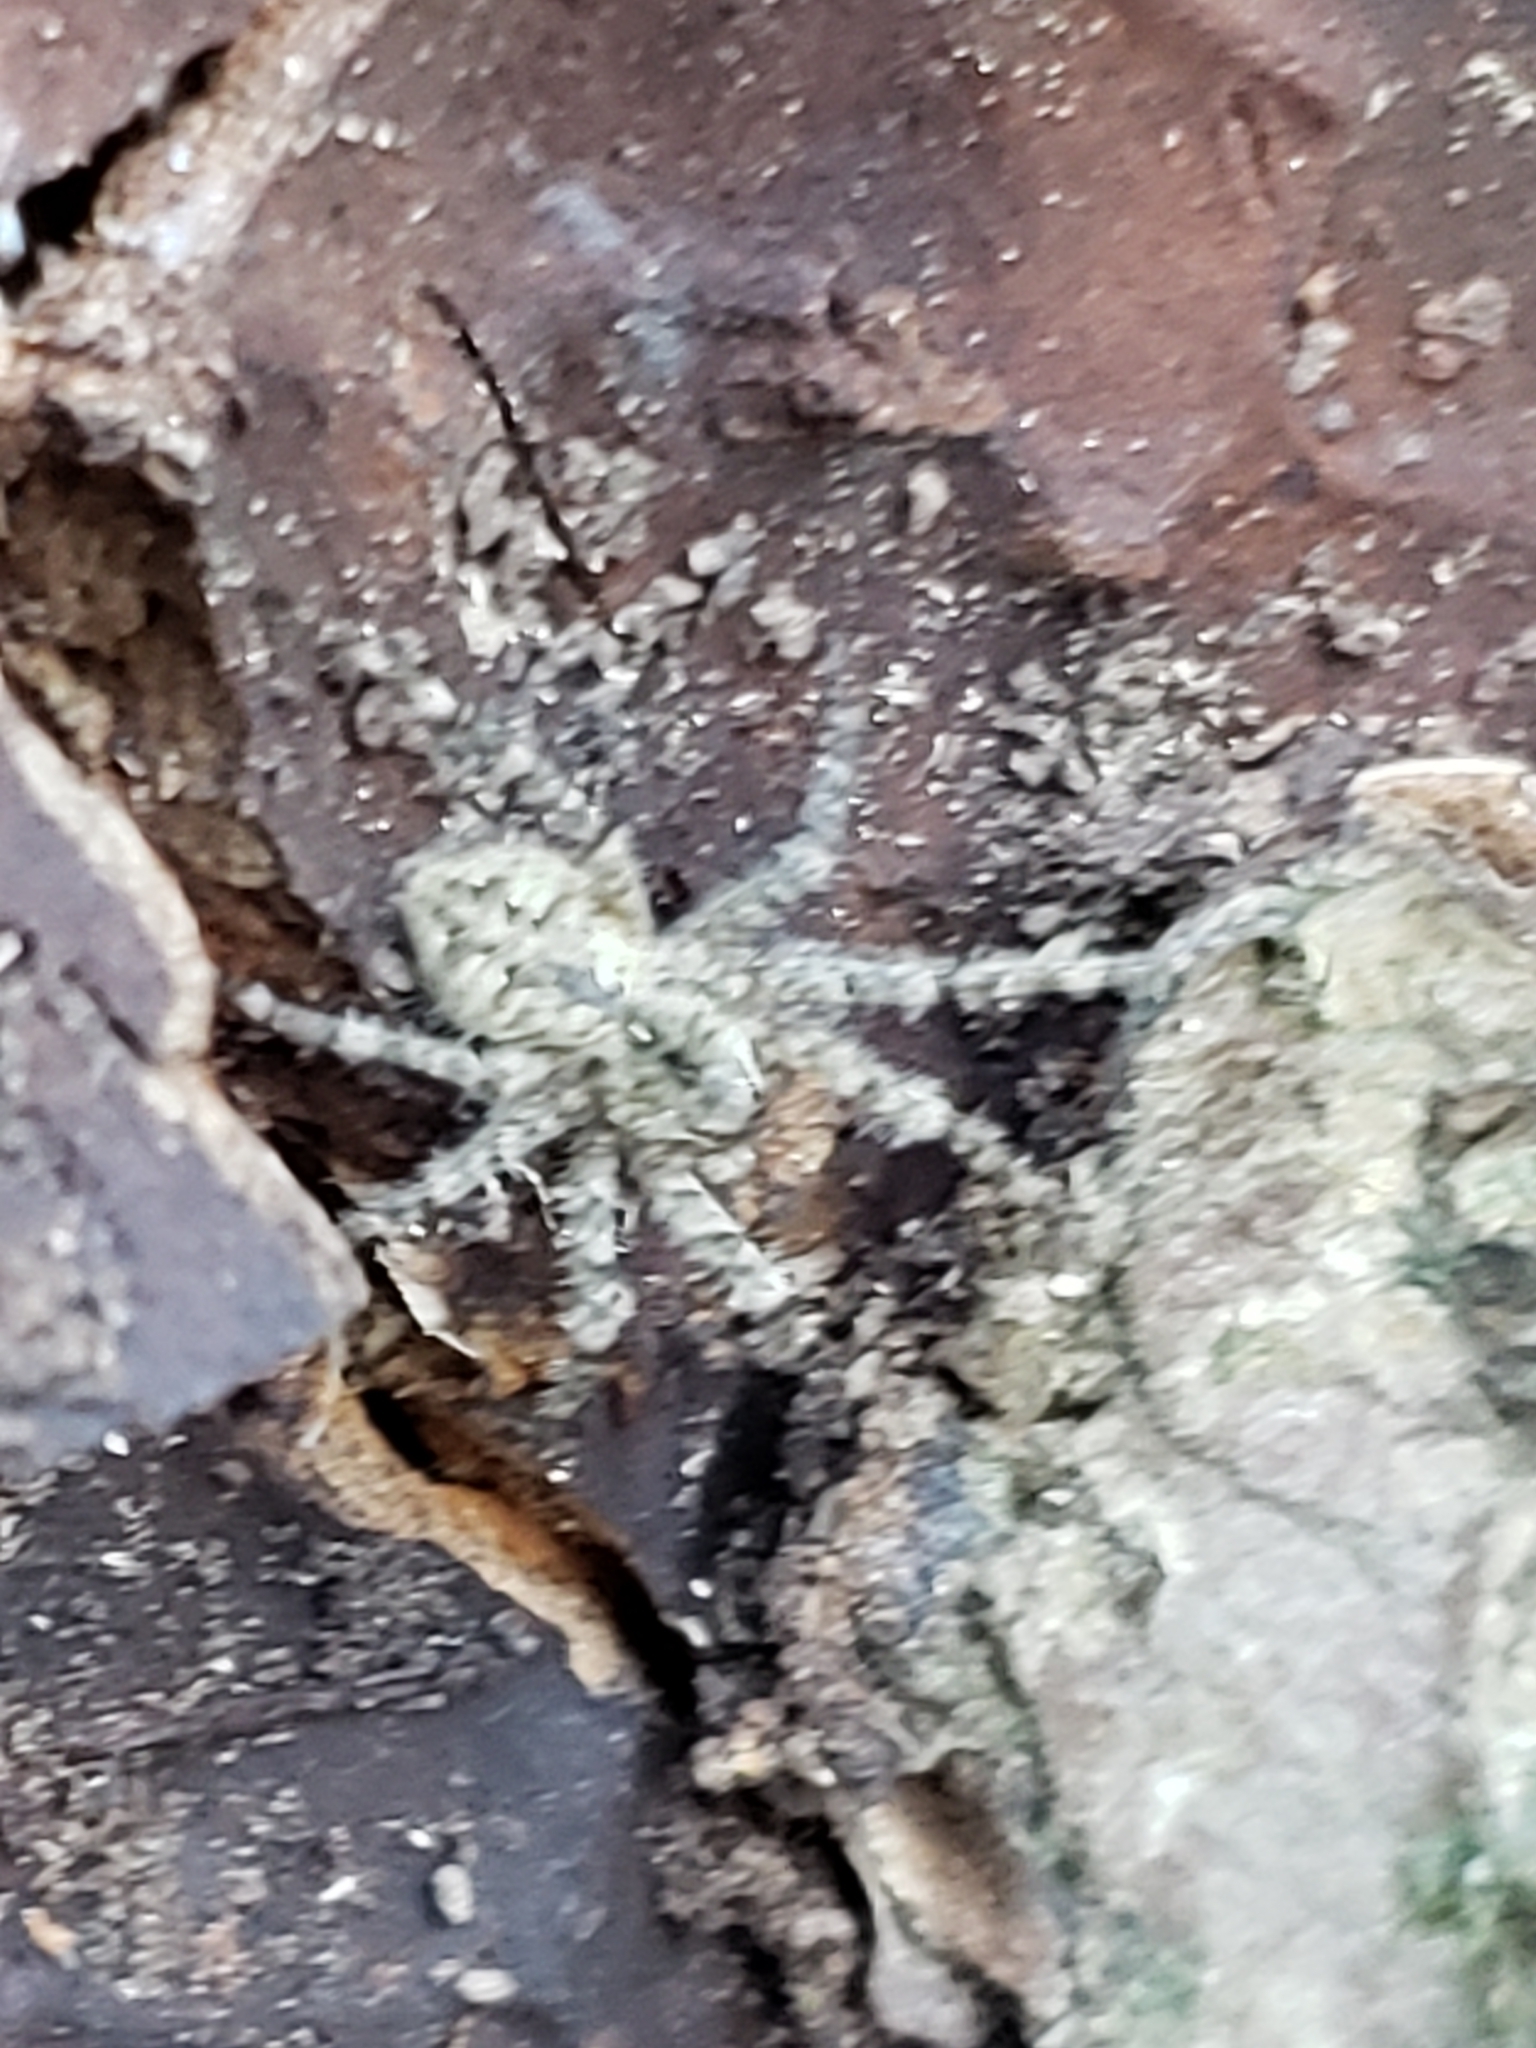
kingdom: Animalia
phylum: Arthropoda
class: Arachnida
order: Araneae
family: Pisauridae
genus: Dolomedes
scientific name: Dolomedes albineus
